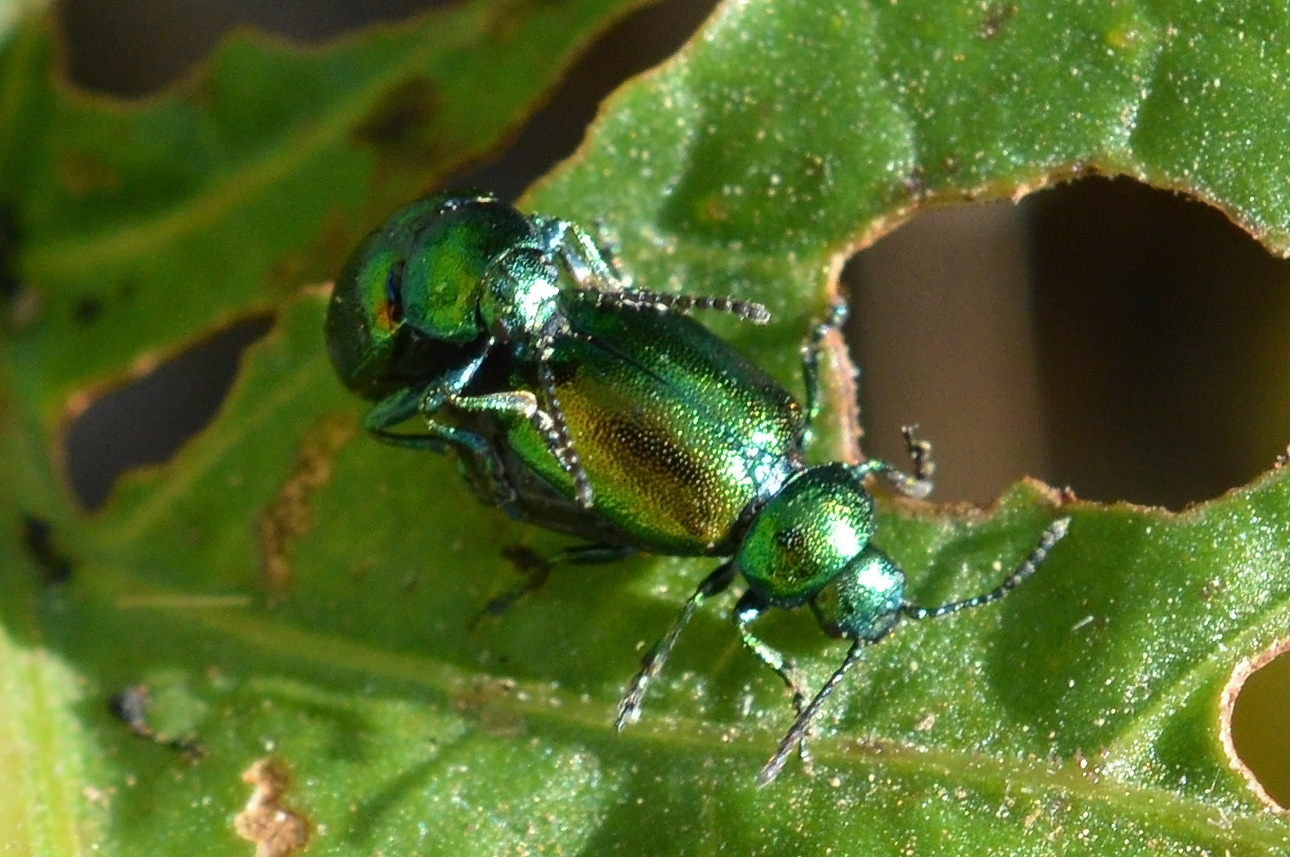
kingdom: Animalia
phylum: Arthropoda
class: Insecta
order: Coleoptera
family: Chrysomelidae
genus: Gastrophysa
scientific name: Gastrophysa viridula
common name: Green dock beetle
